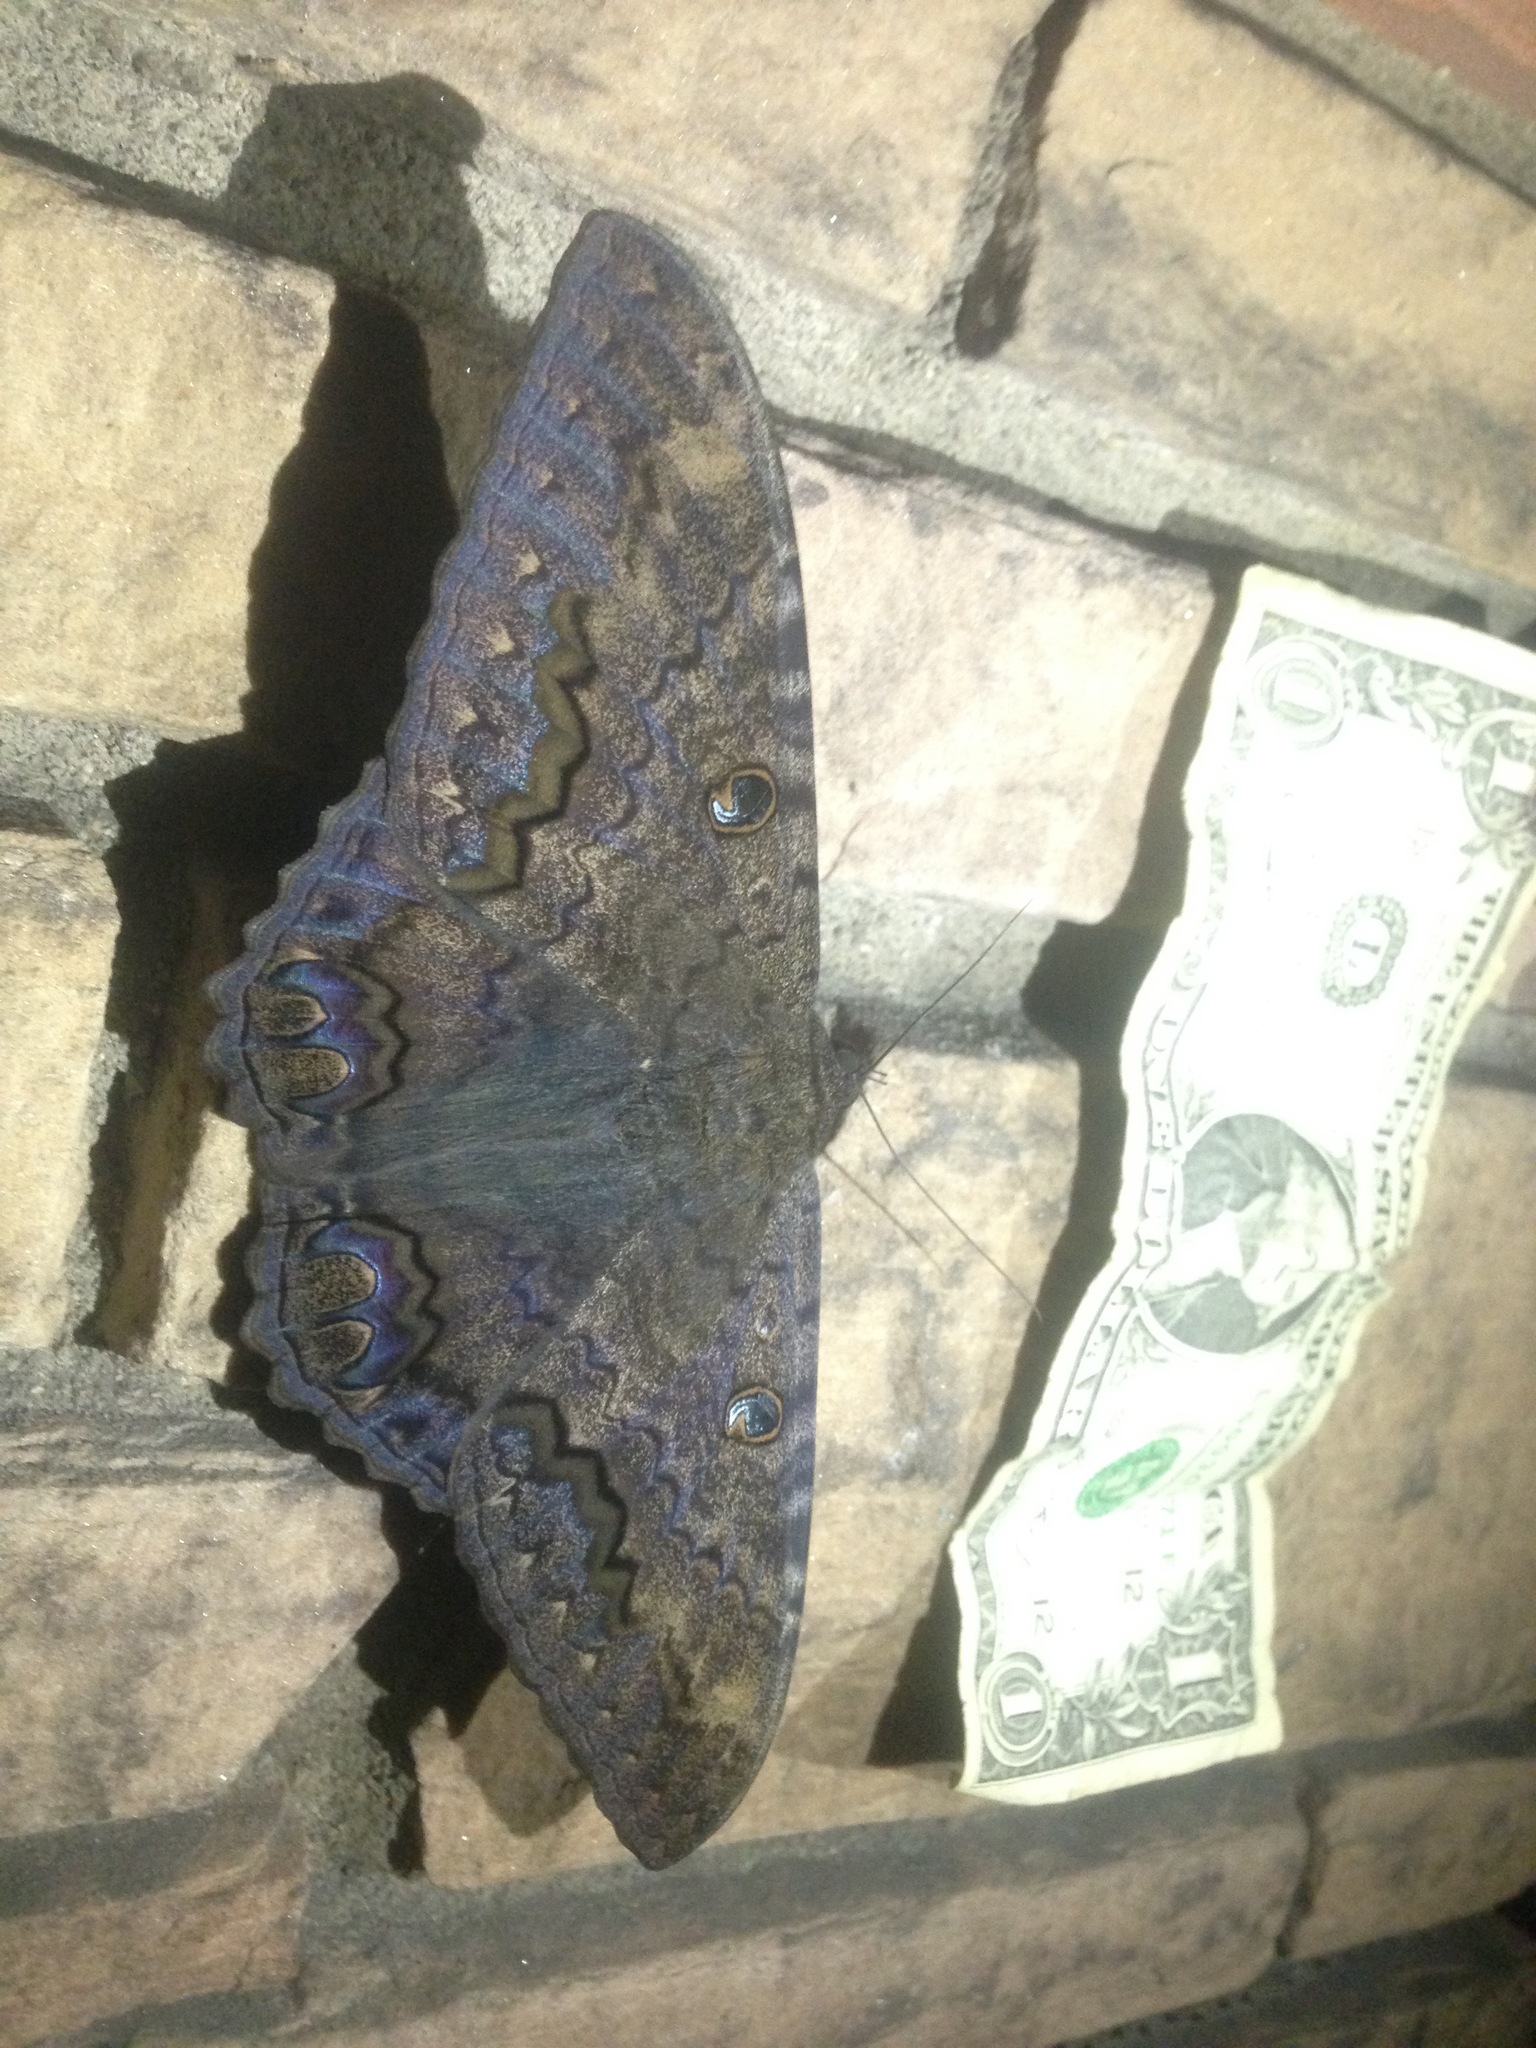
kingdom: Animalia
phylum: Arthropoda
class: Insecta
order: Lepidoptera
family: Erebidae
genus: Ascalapha
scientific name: Ascalapha odorata
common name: Black witch
